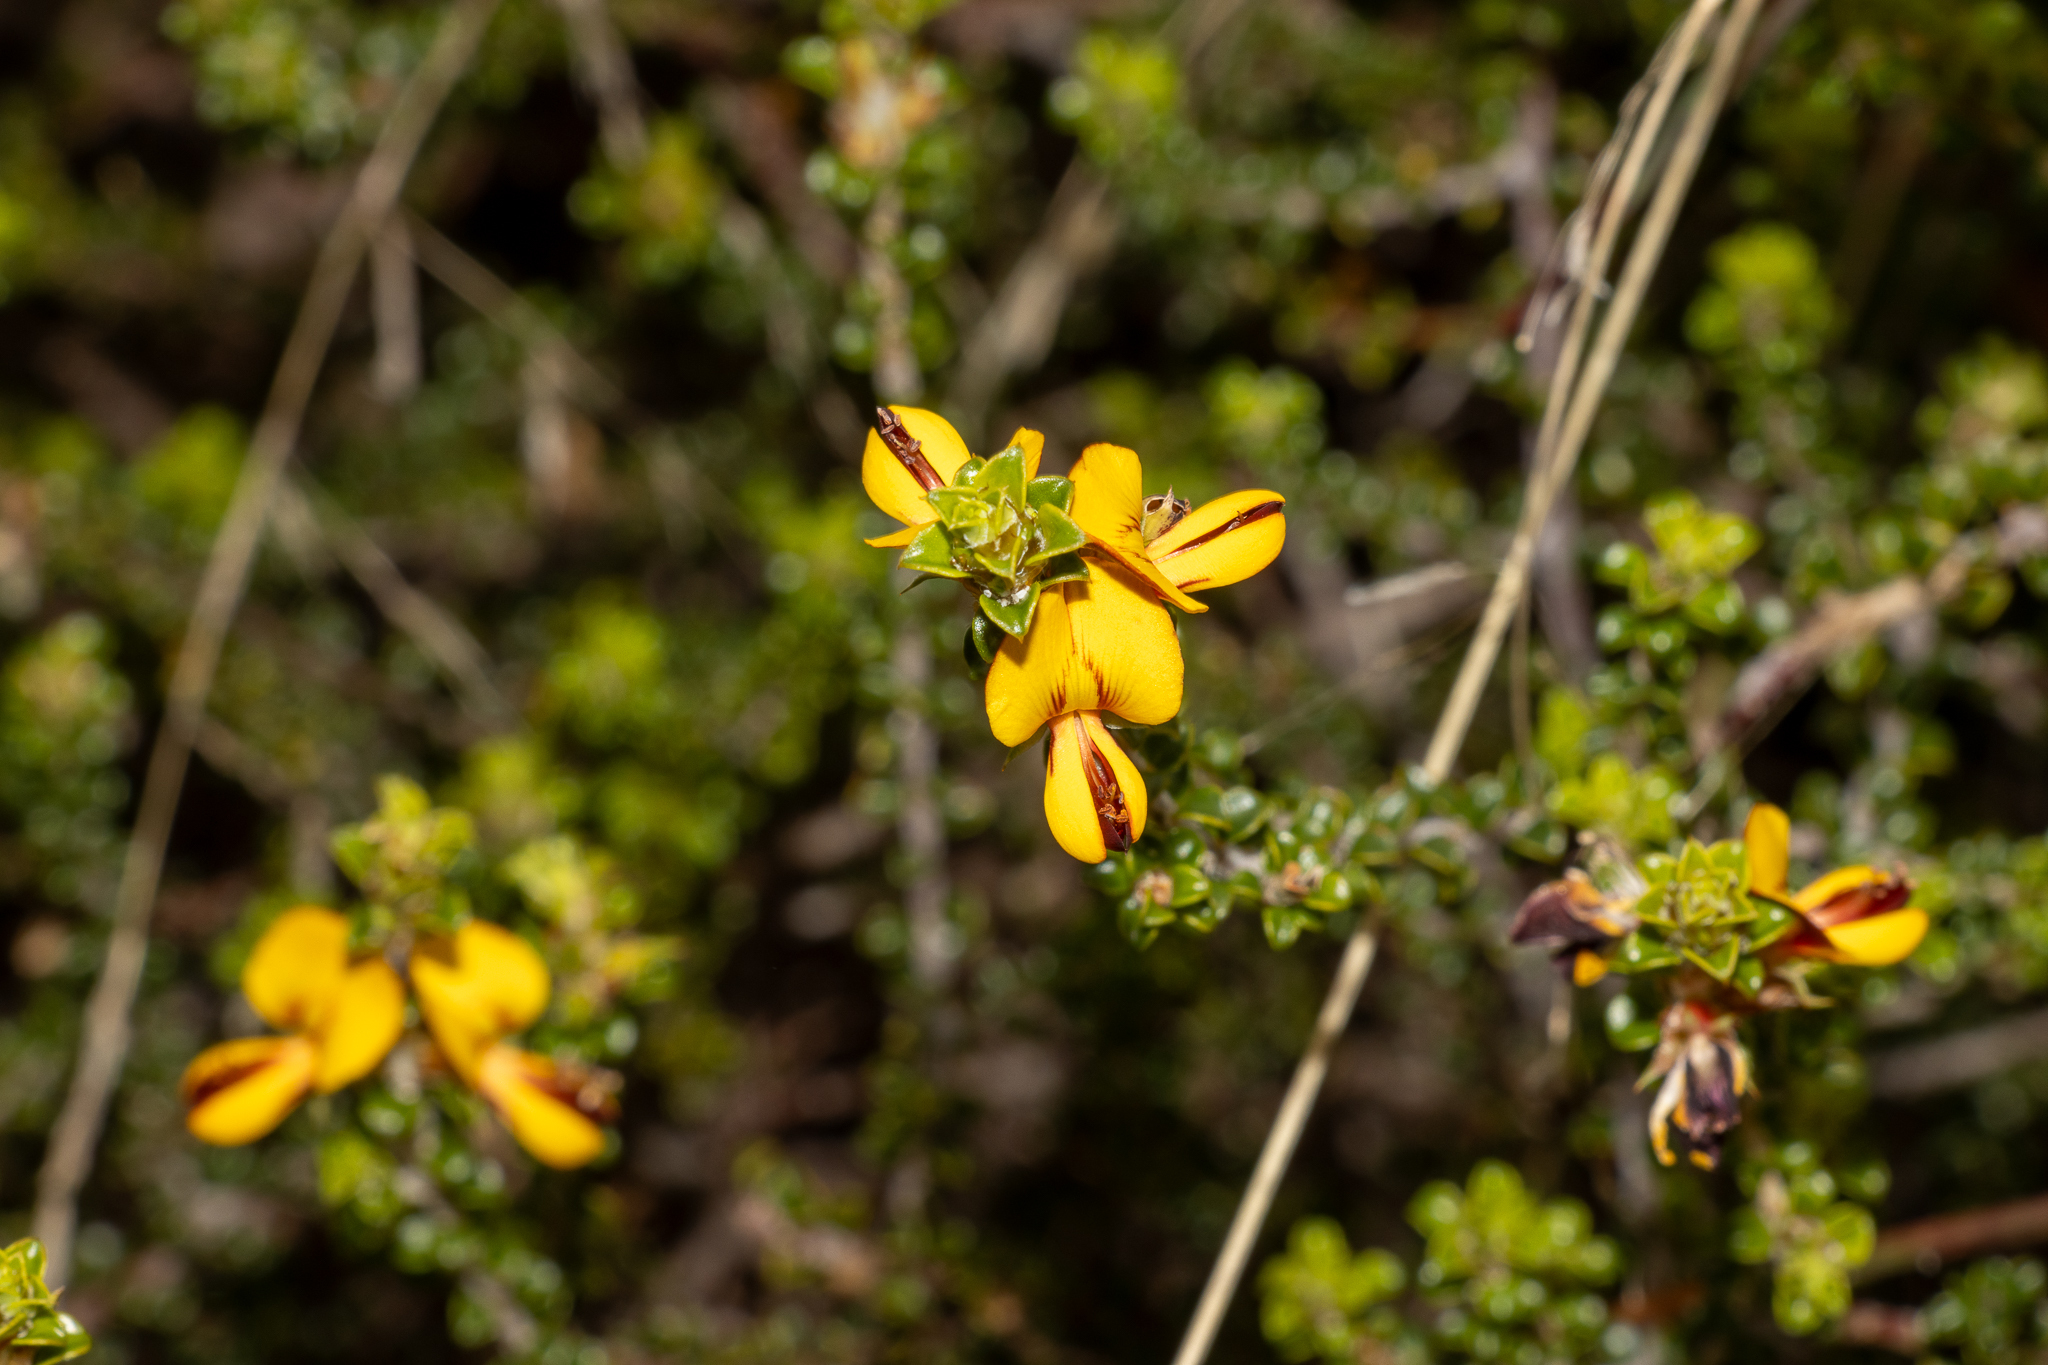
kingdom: Plantae
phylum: Tracheophyta
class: Magnoliopsida
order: Fabales
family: Fabaceae
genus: Pultenaea
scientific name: Pultenaea densifolia
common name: Dense-leaf bush-pea
